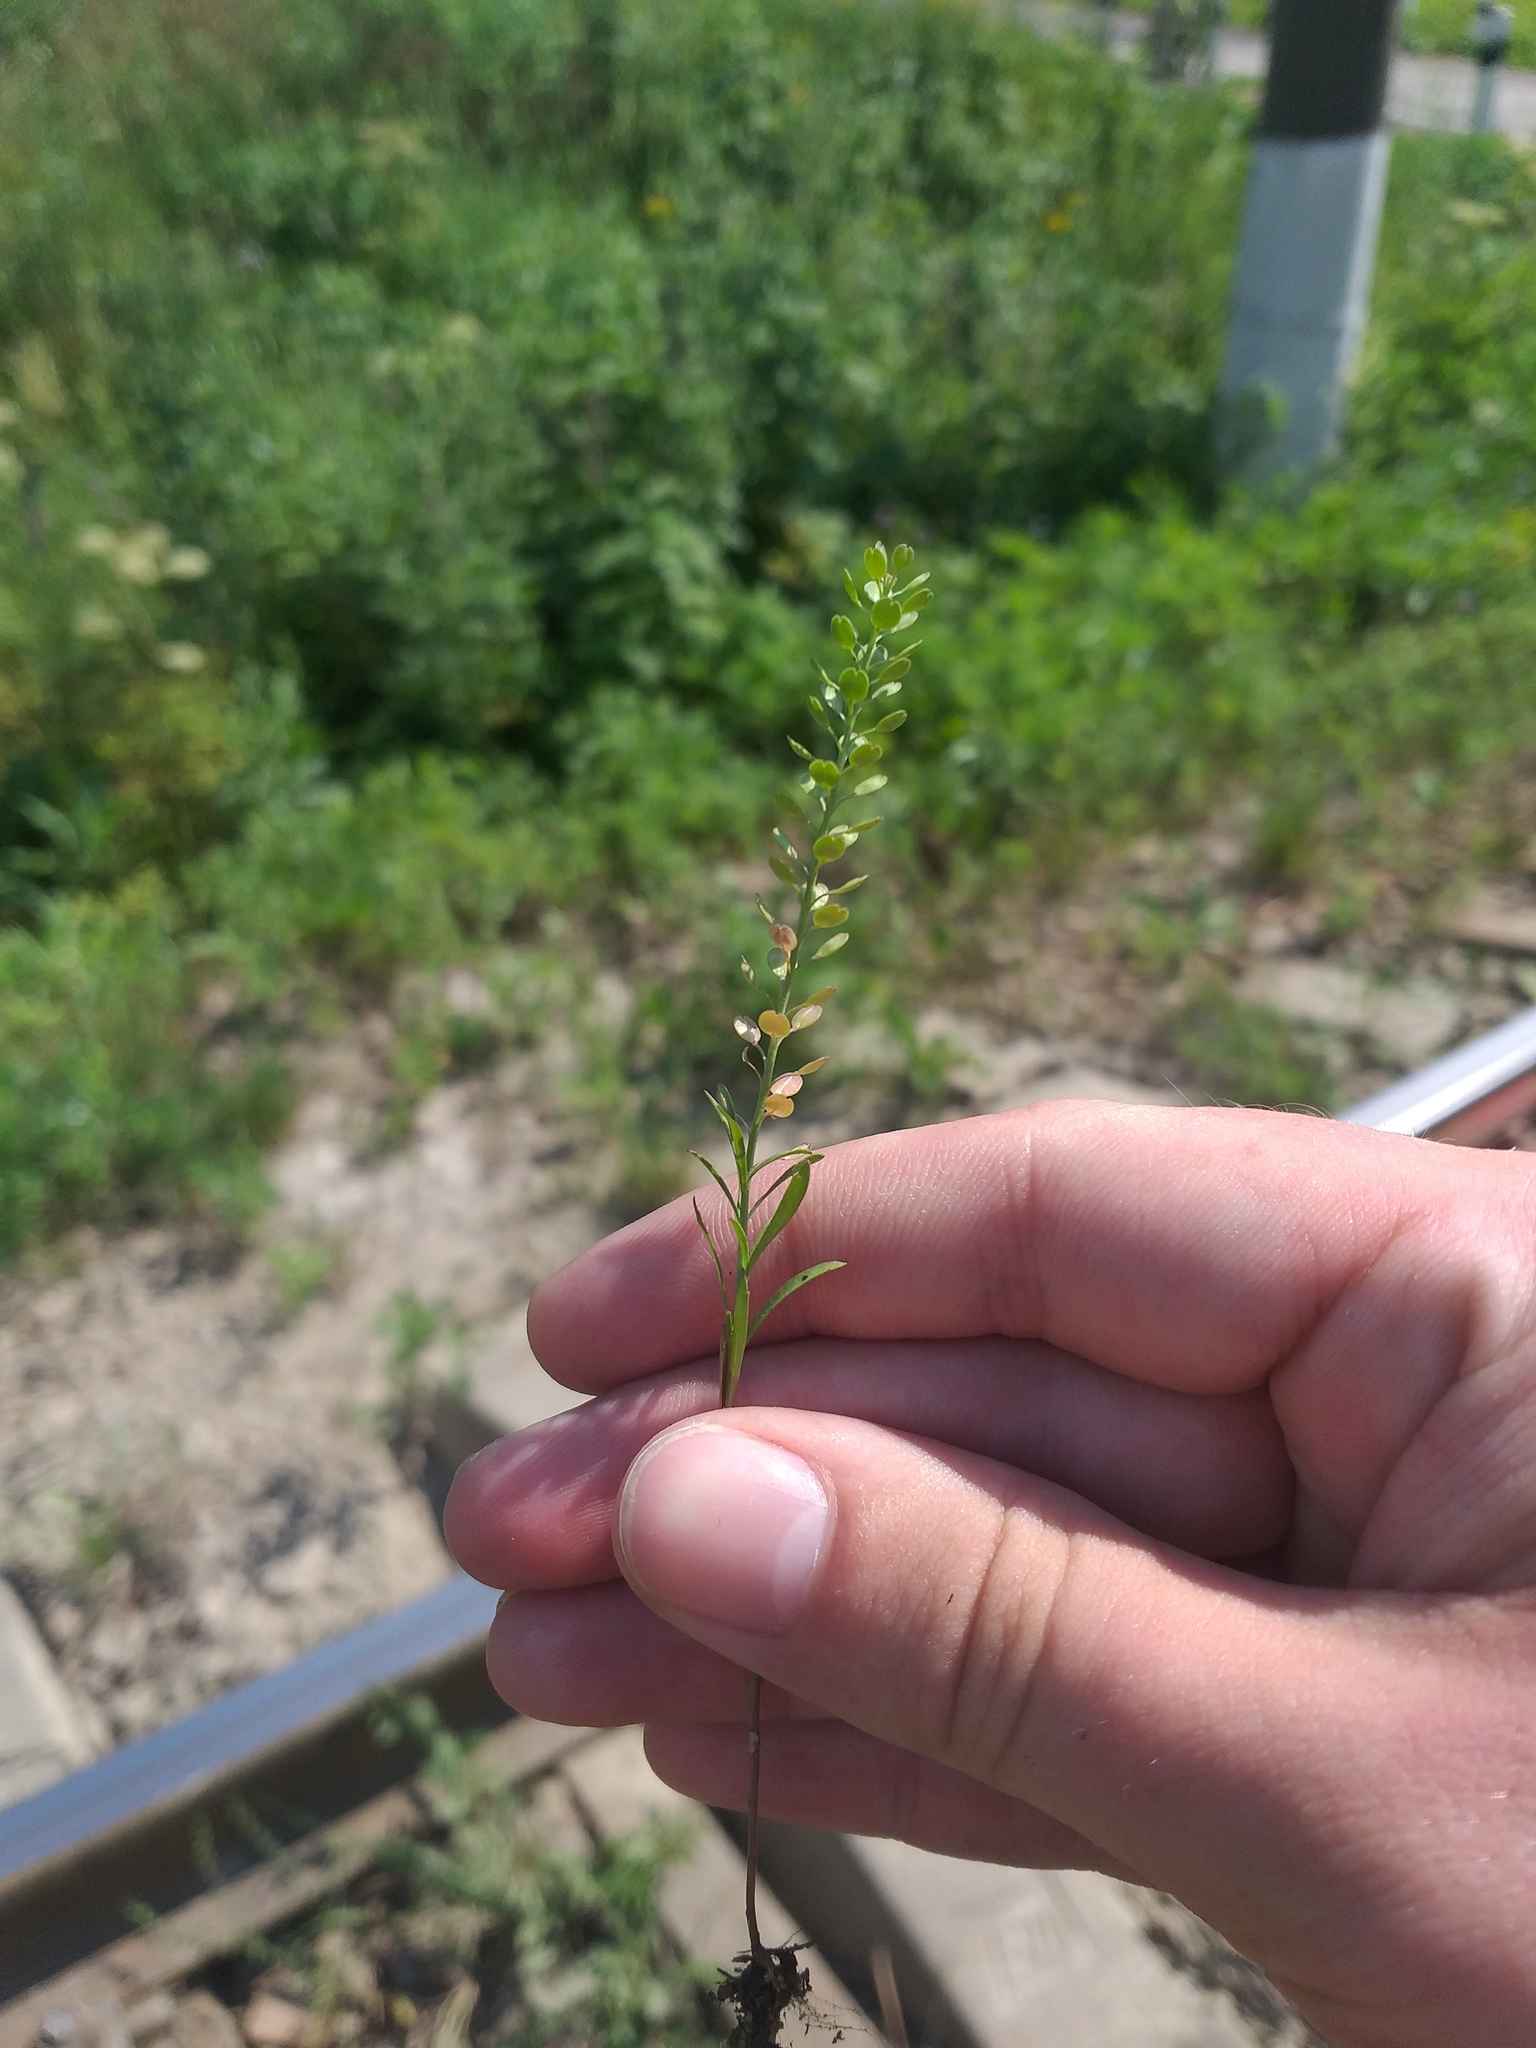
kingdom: Plantae
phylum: Tracheophyta
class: Magnoliopsida
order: Brassicales
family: Brassicaceae
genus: Lepidium
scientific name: Lepidium densiflorum
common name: Miner's pepperwort
